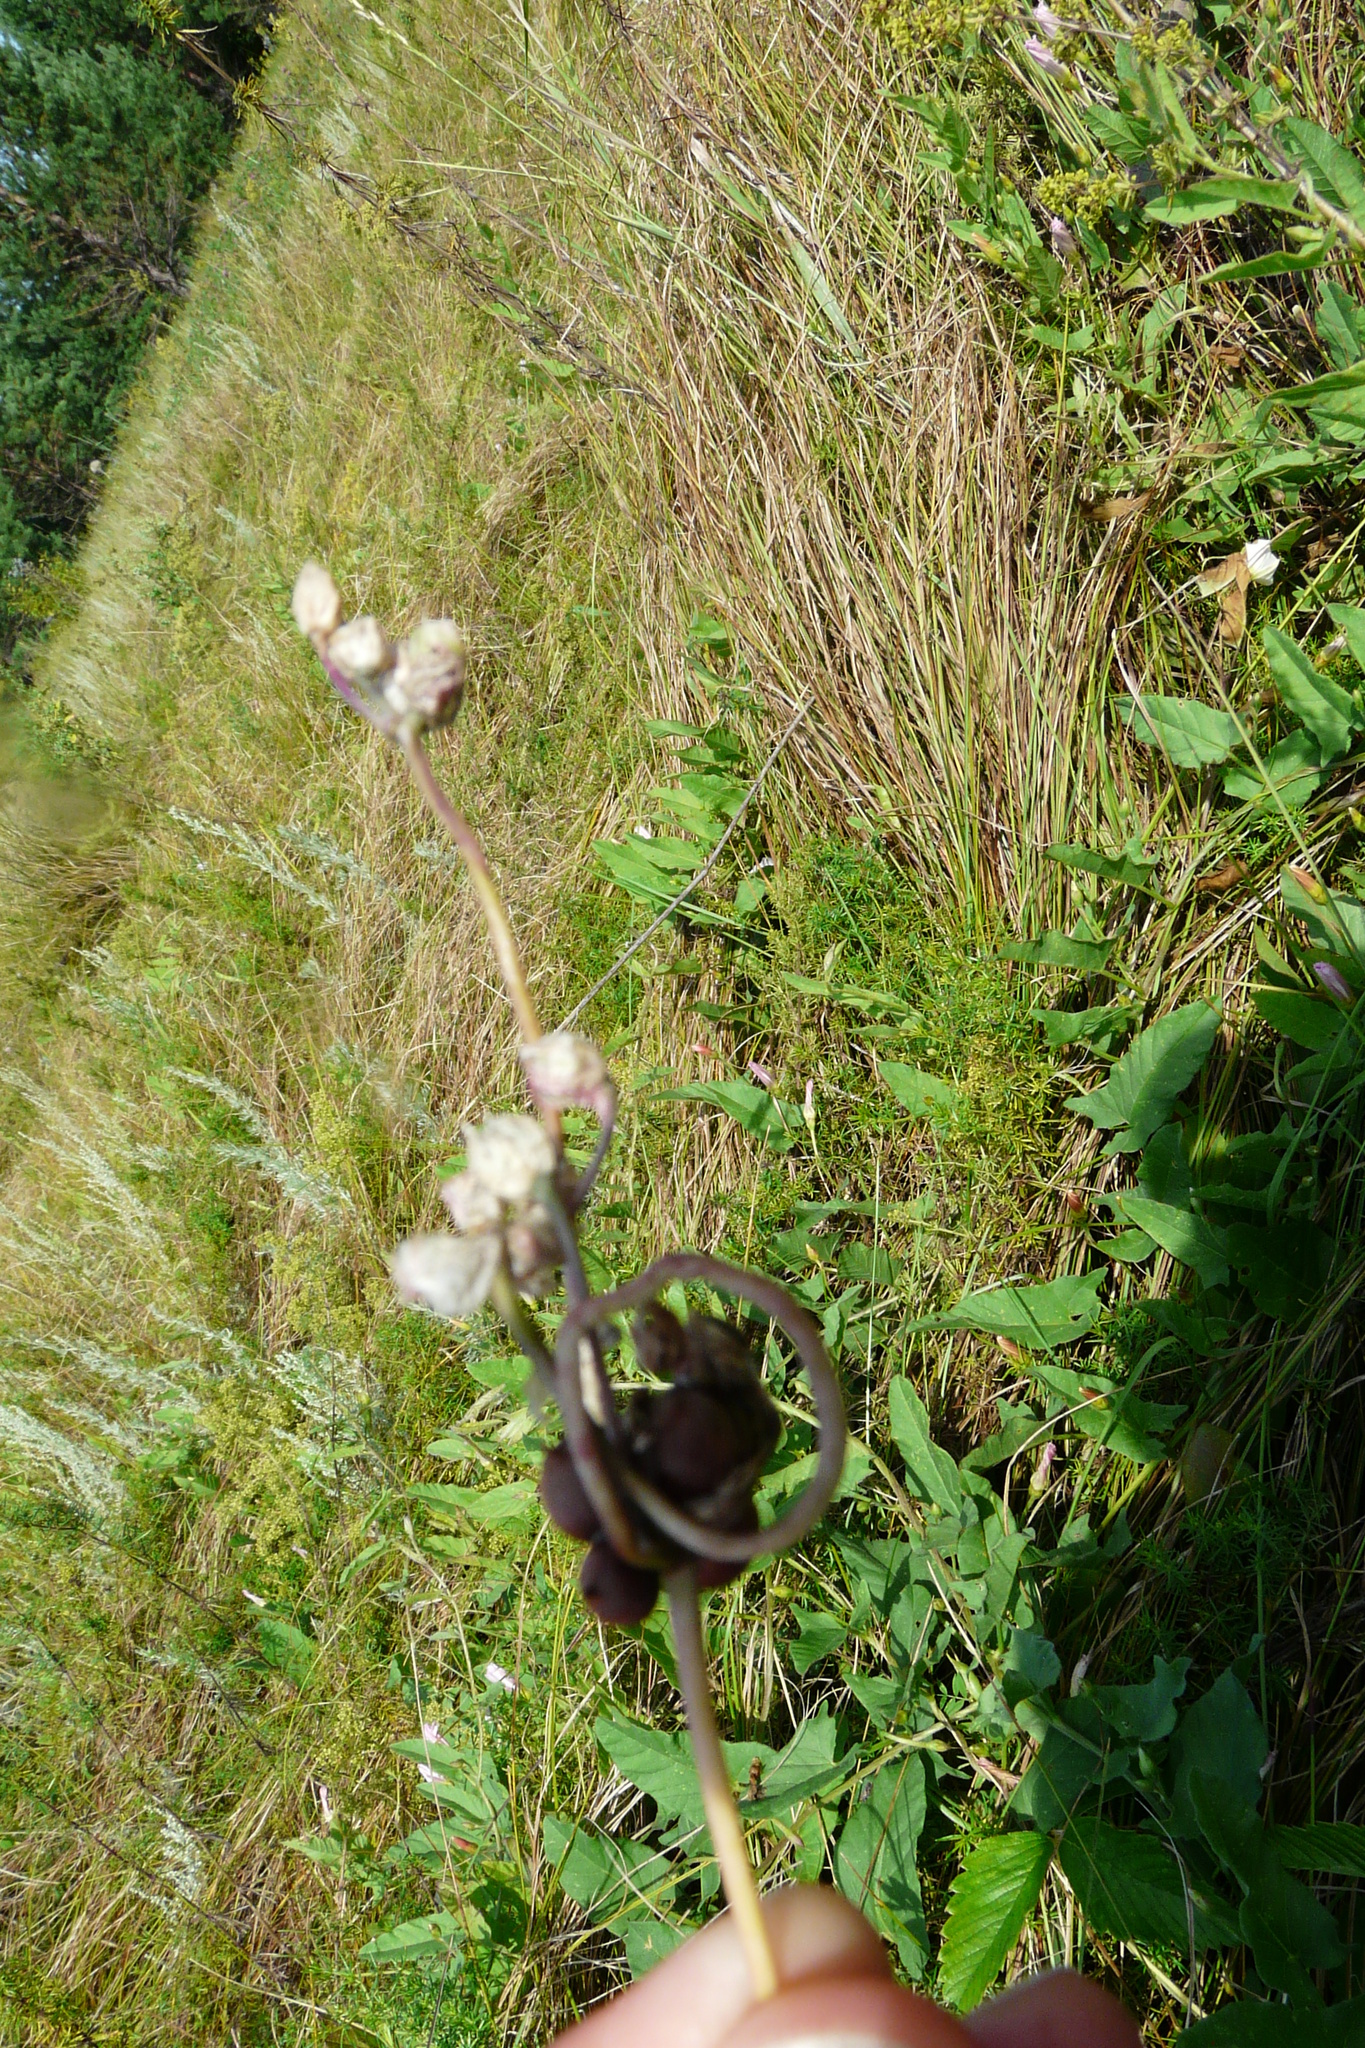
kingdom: Plantae
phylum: Tracheophyta
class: Liliopsida
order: Asparagales
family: Amaryllidaceae
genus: Allium
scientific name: Allium scorodoprasum
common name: Sand leek
